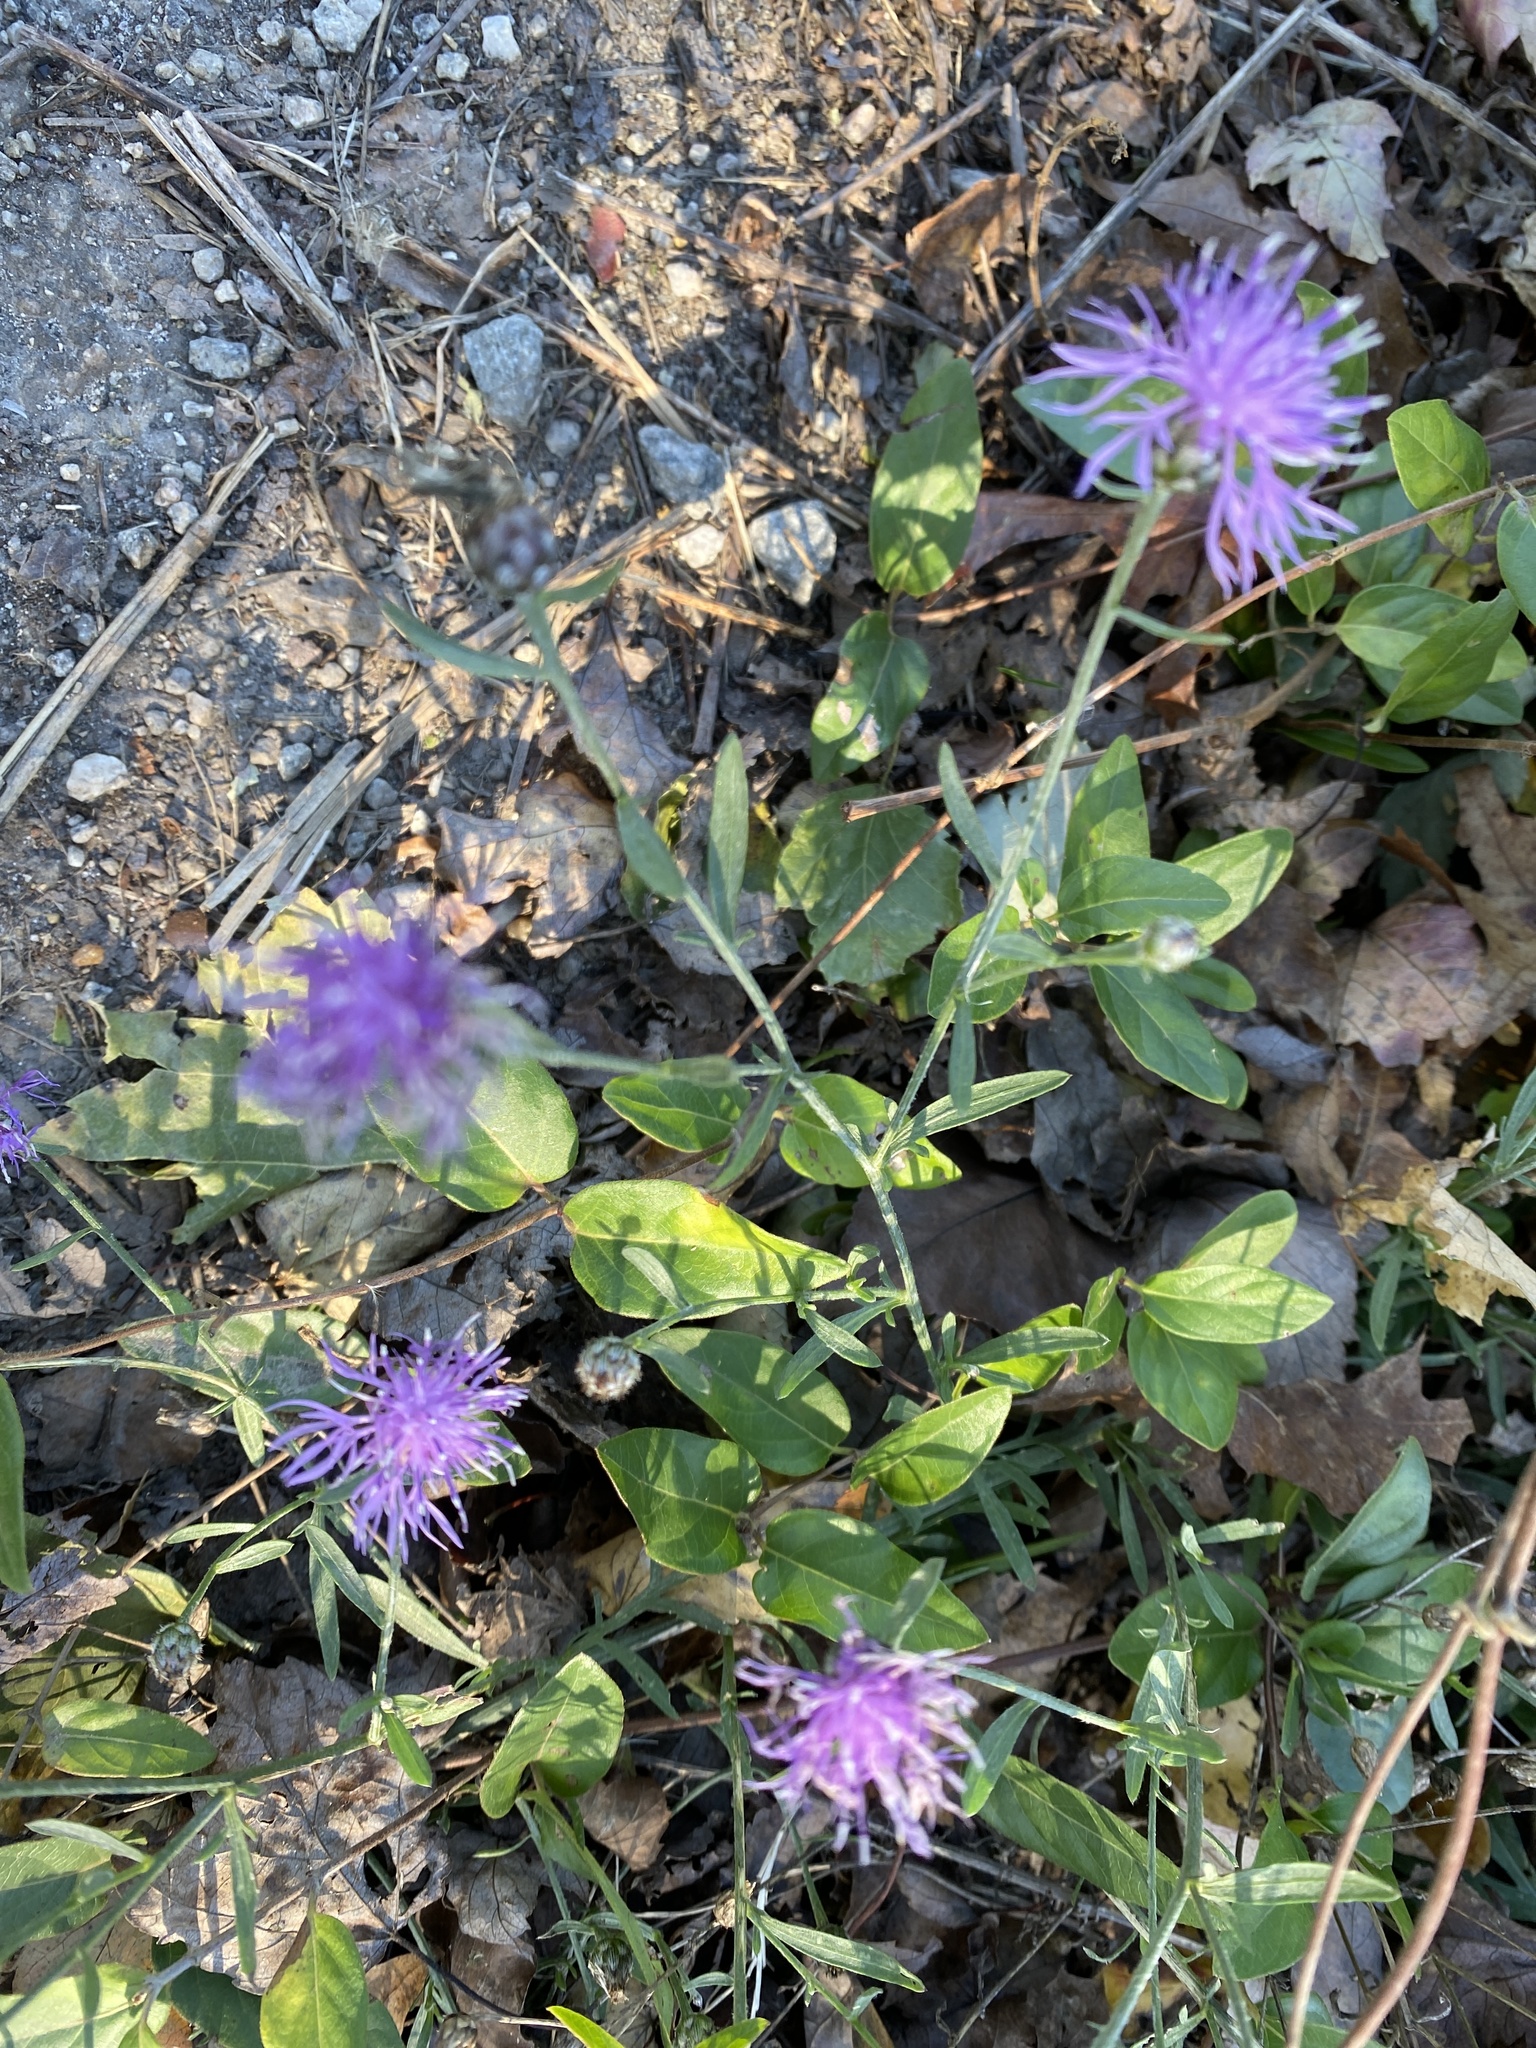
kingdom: Plantae
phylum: Tracheophyta
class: Magnoliopsida
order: Asterales
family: Asteraceae
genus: Centaurea
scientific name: Centaurea stoebe
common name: Spotted knapweed
